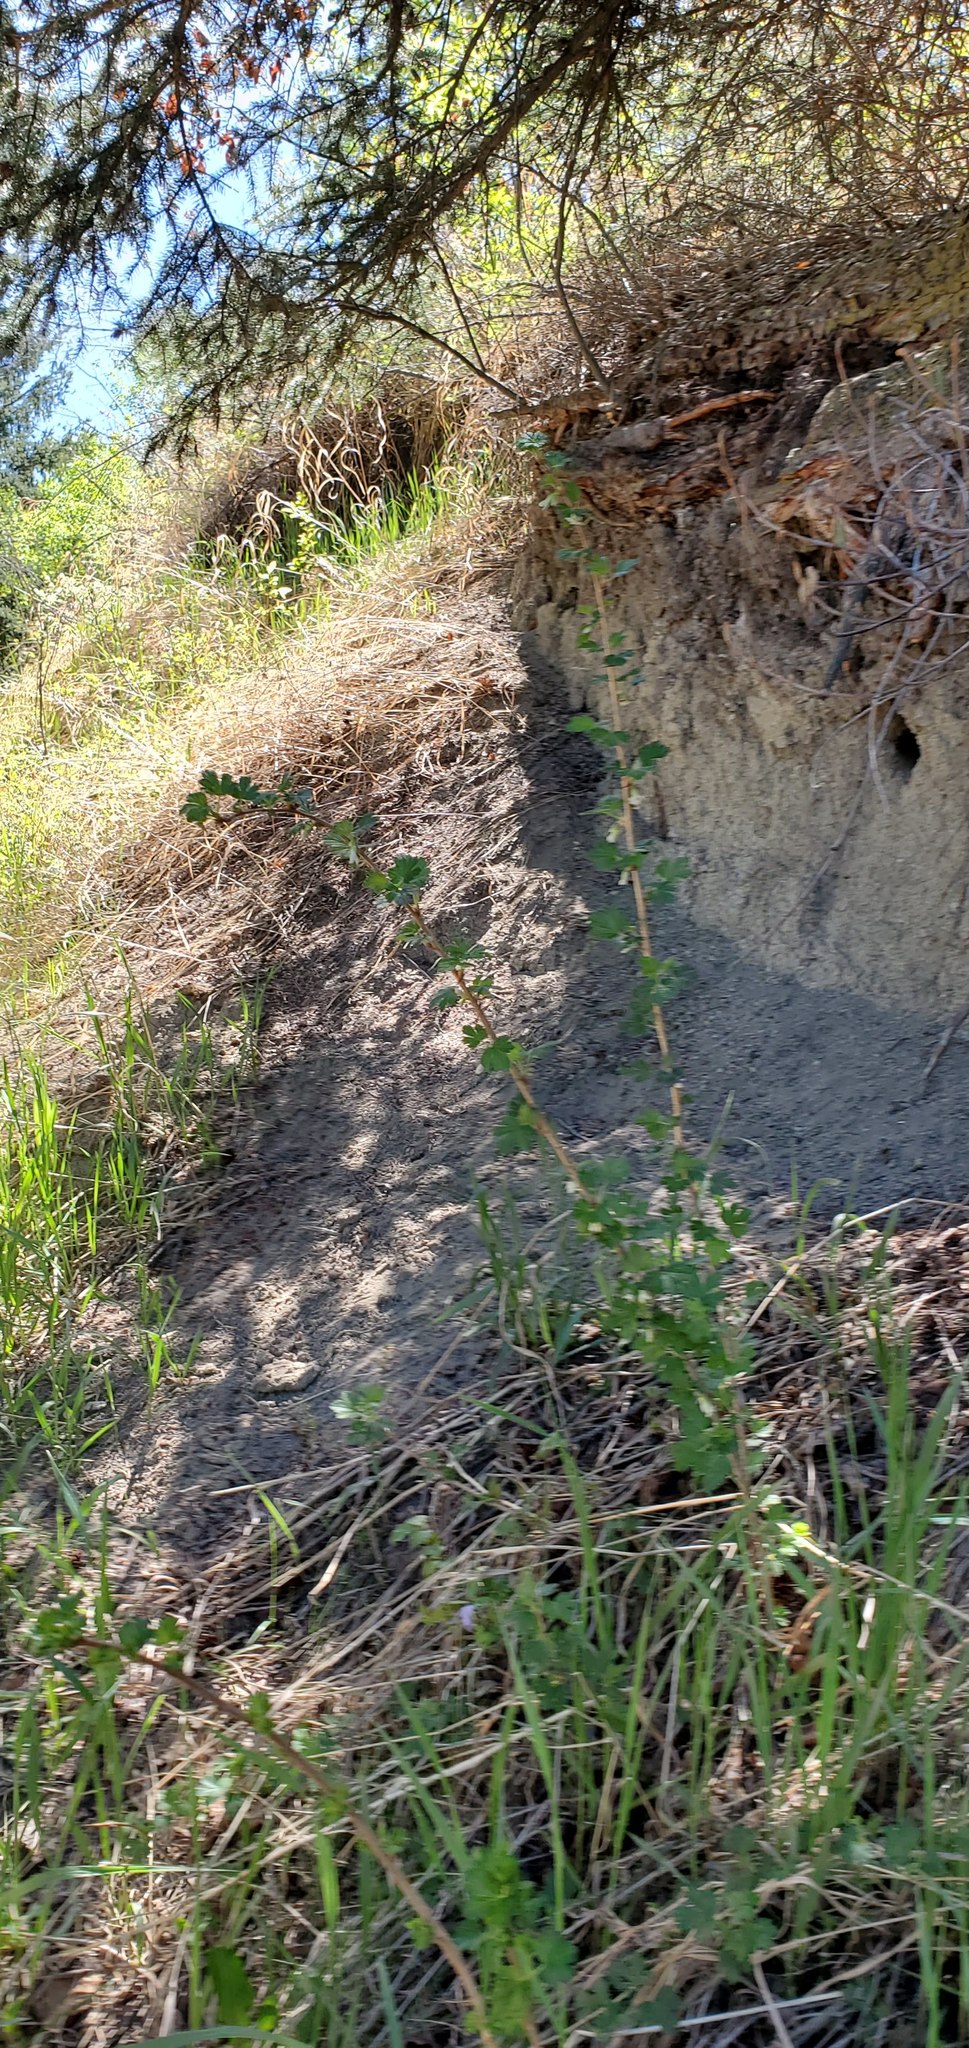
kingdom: Plantae
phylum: Tracheophyta
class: Magnoliopsida
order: Saxifragales
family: Grossulariaceae
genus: Ribes
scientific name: Ribes oxyacanthoides
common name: Northern gooseberry
